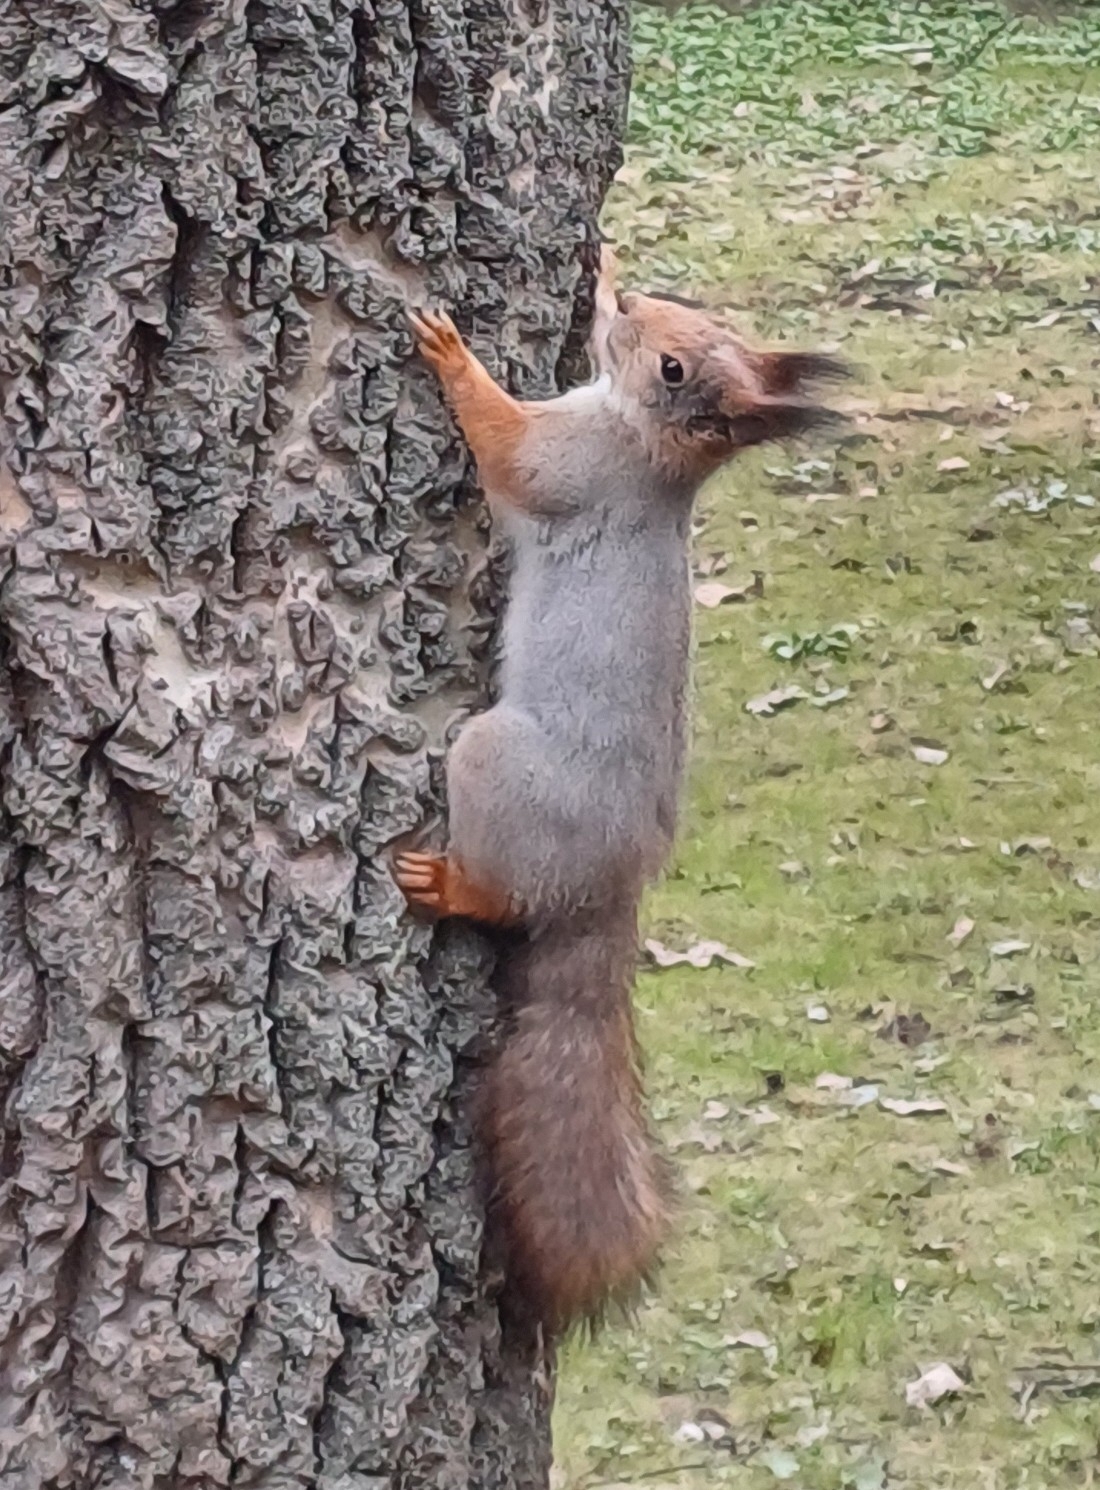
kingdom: Animalia
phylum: Chordata
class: Mammalia
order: Rodentia
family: Sciuridae
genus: Sciurus
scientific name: Sciurus vulgaris
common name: Eurasian red squirrel
